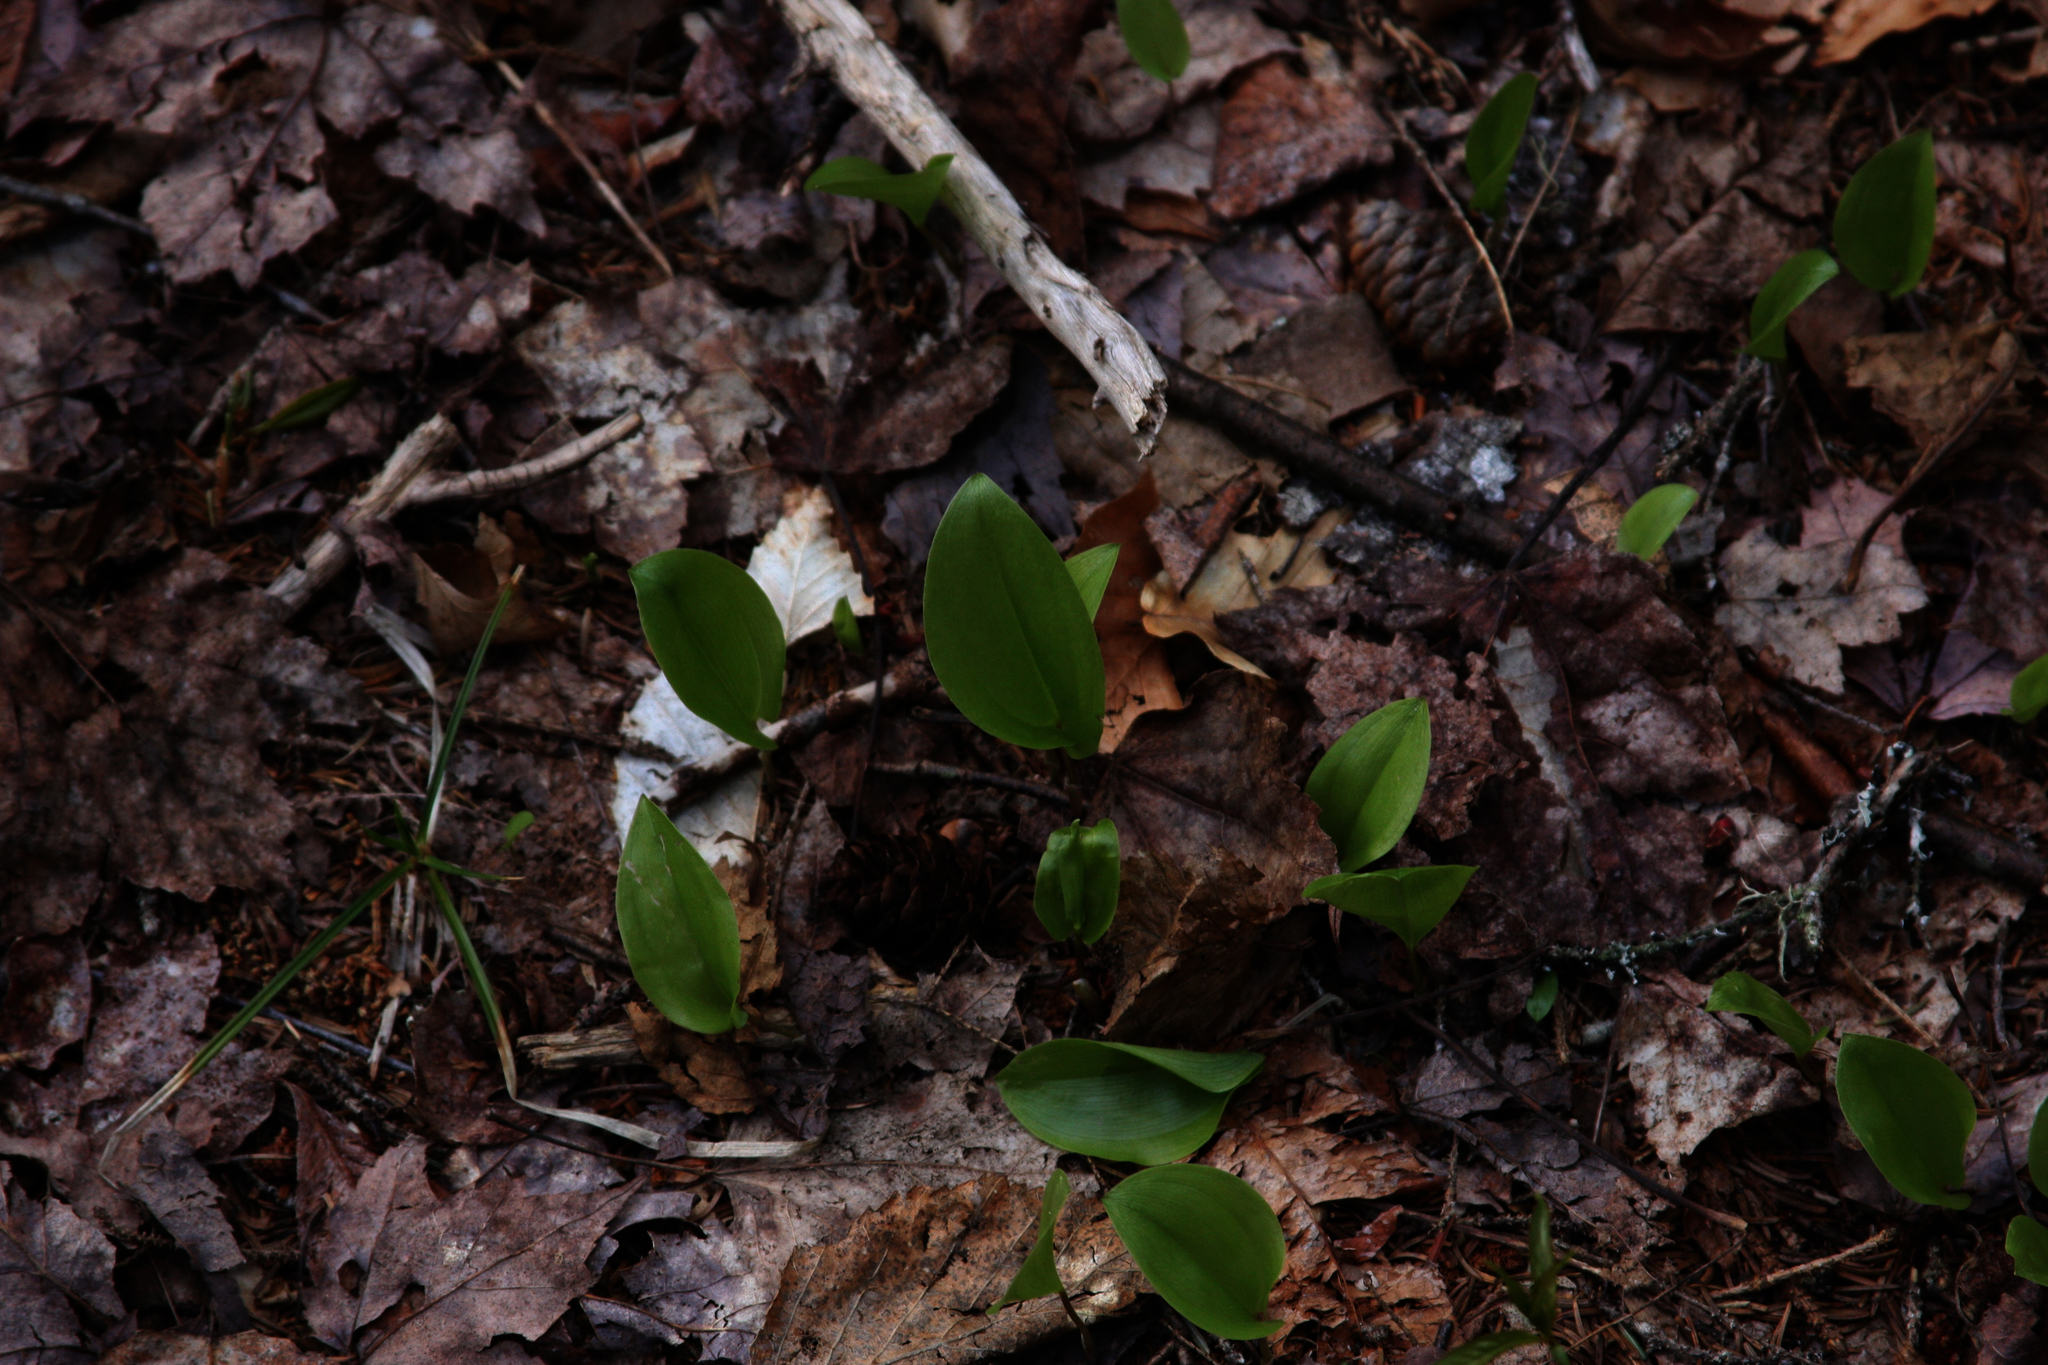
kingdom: Plantae
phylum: Tracheophyta
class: Liliopsida
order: Asparagales
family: Asparagaceae
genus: Maianthemum
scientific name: Maianthemum canadense
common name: False lily-of-the-valley
